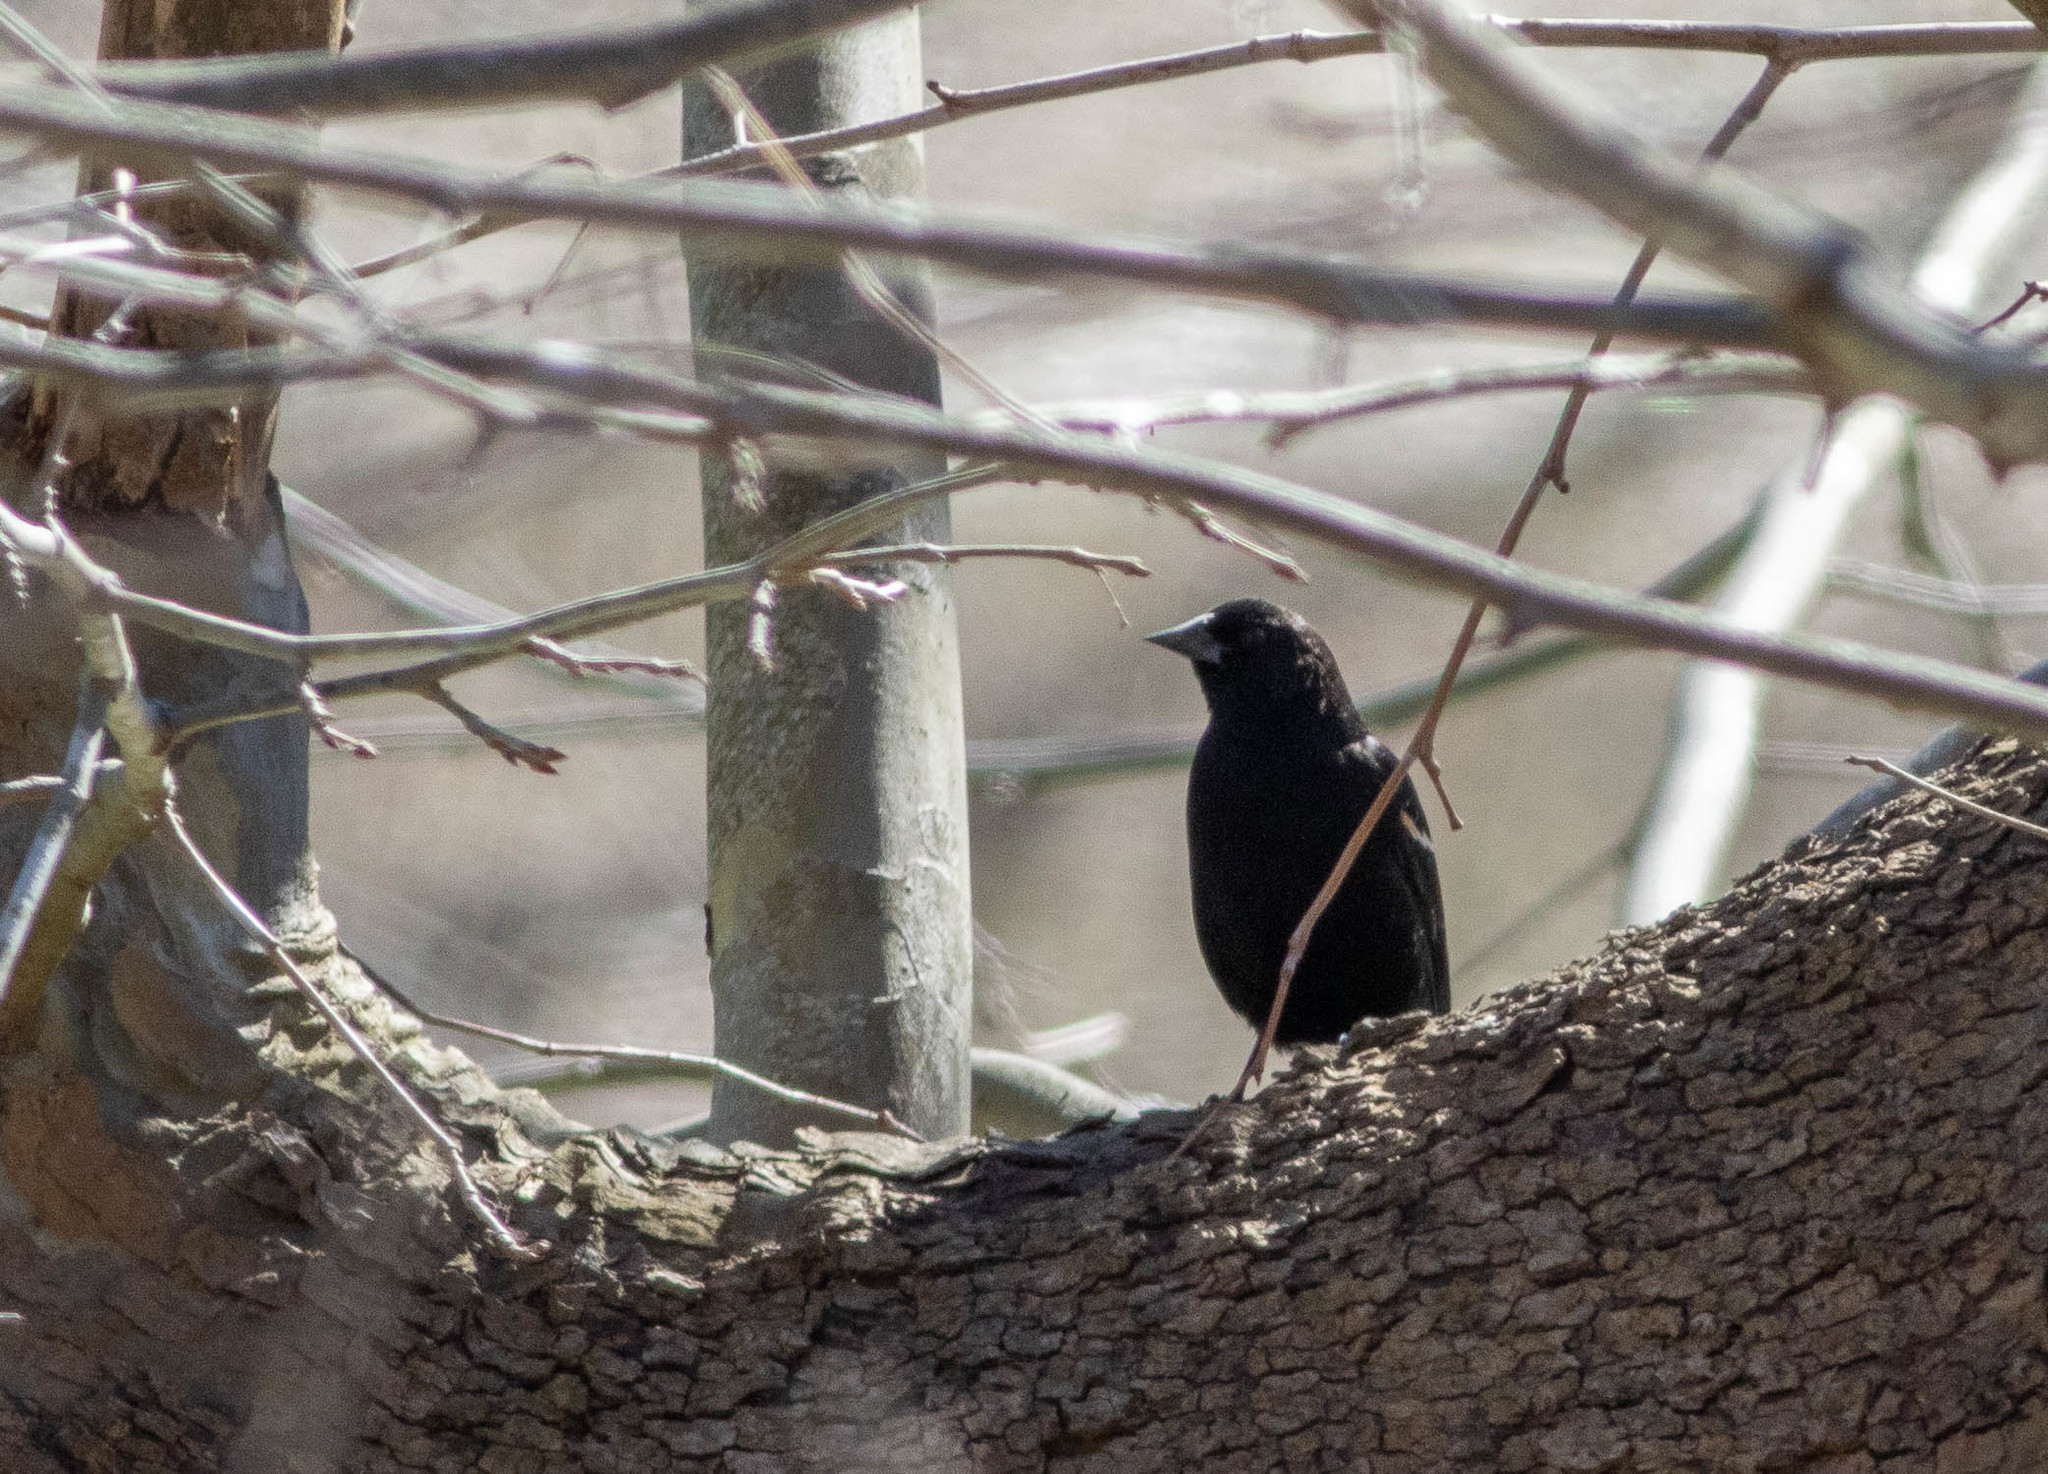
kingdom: Animalia
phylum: Chordata
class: Aves
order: Passeriformes
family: Icteridae
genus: Agelaius
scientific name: Agelaius phoeniceus
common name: Red-winged blackbird
